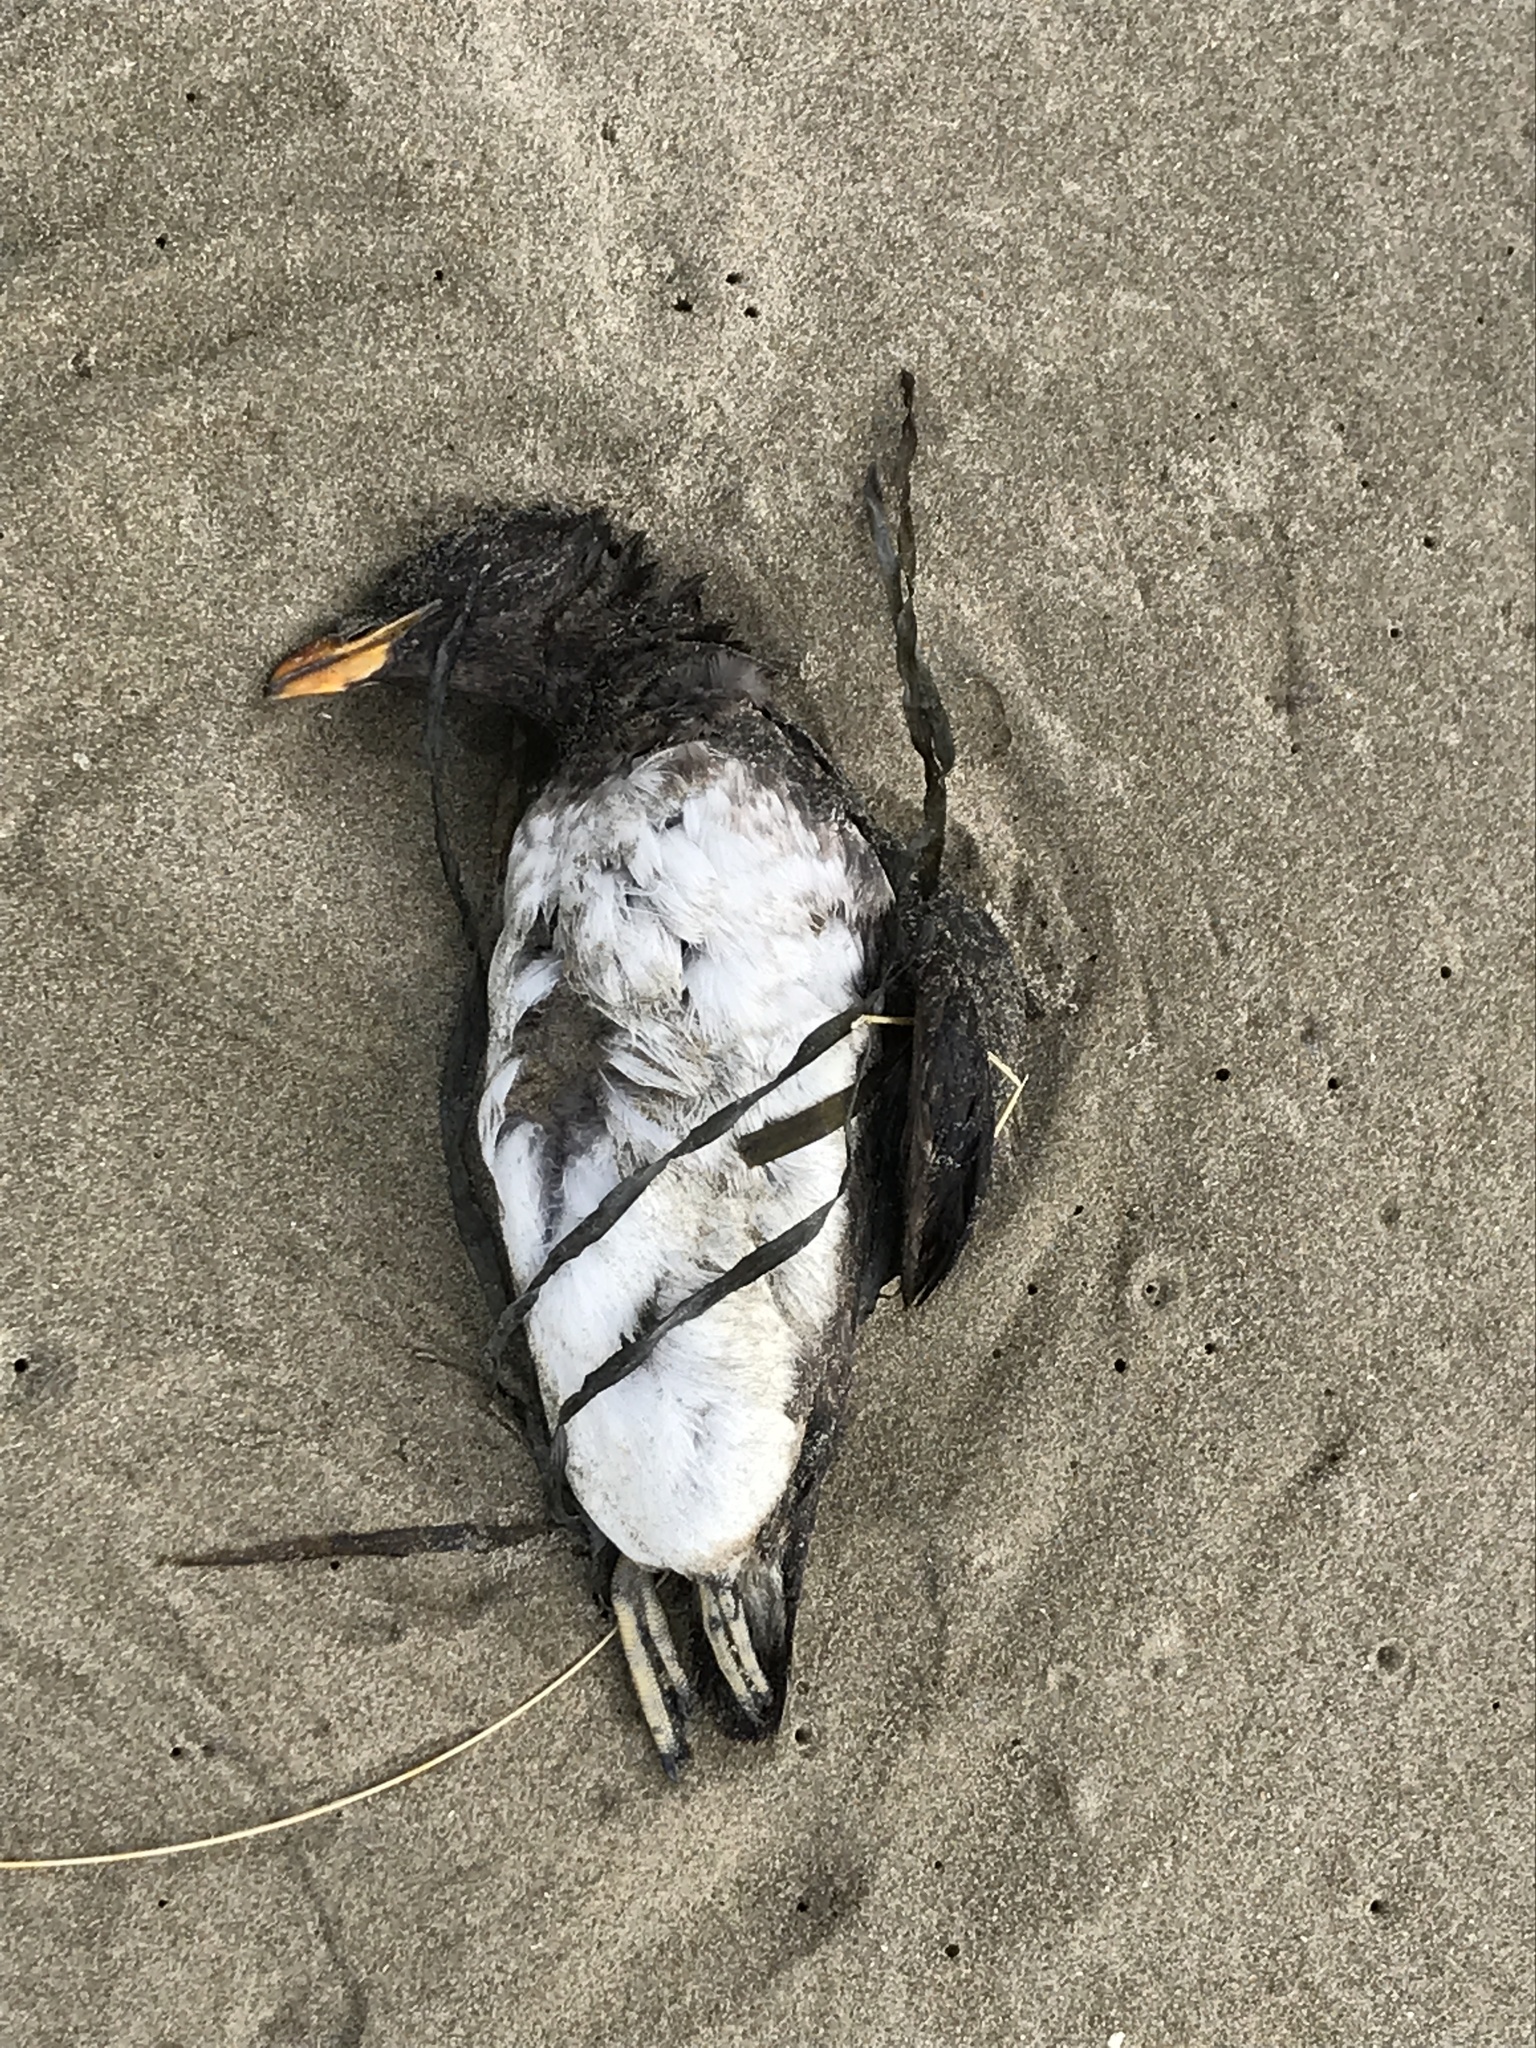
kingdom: Animalia
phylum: Chordata
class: Aves
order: Charadriiformes
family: Alcidae
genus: Cerorhinca
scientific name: Cerorhinca monocerata
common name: Rhinoceros auklet
